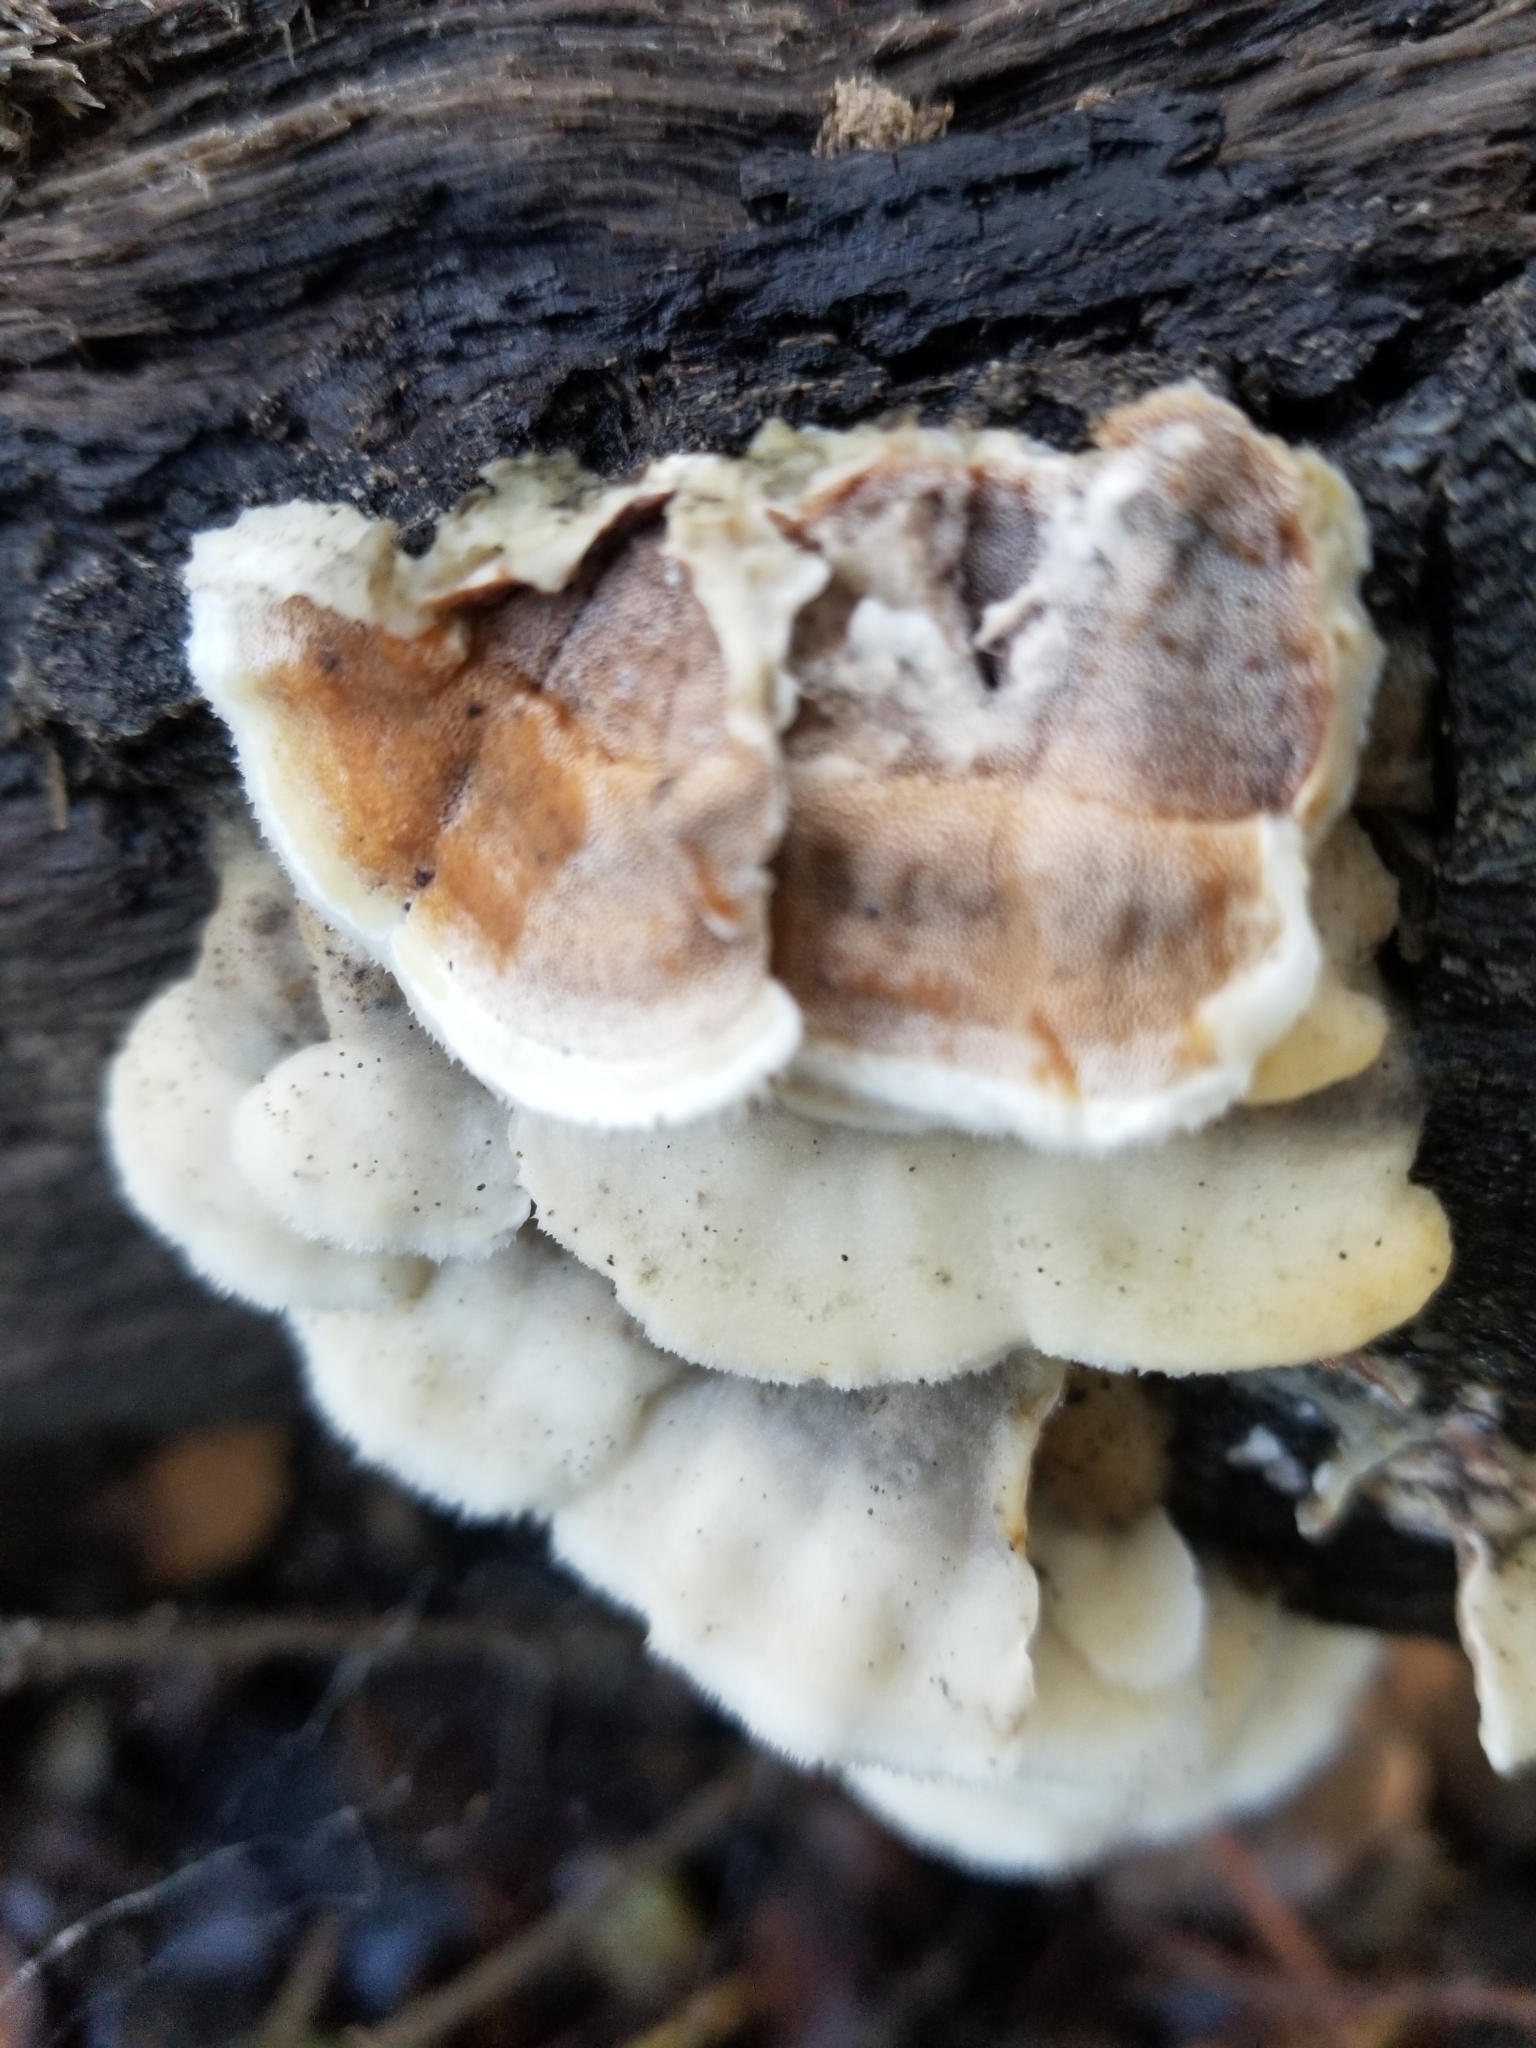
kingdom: Fungi
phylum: Basidiomycota
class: Agaricomycetes
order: Polyporales
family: Irpicaceae
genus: Vitreoporus
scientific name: Vitreoporus dichrous
